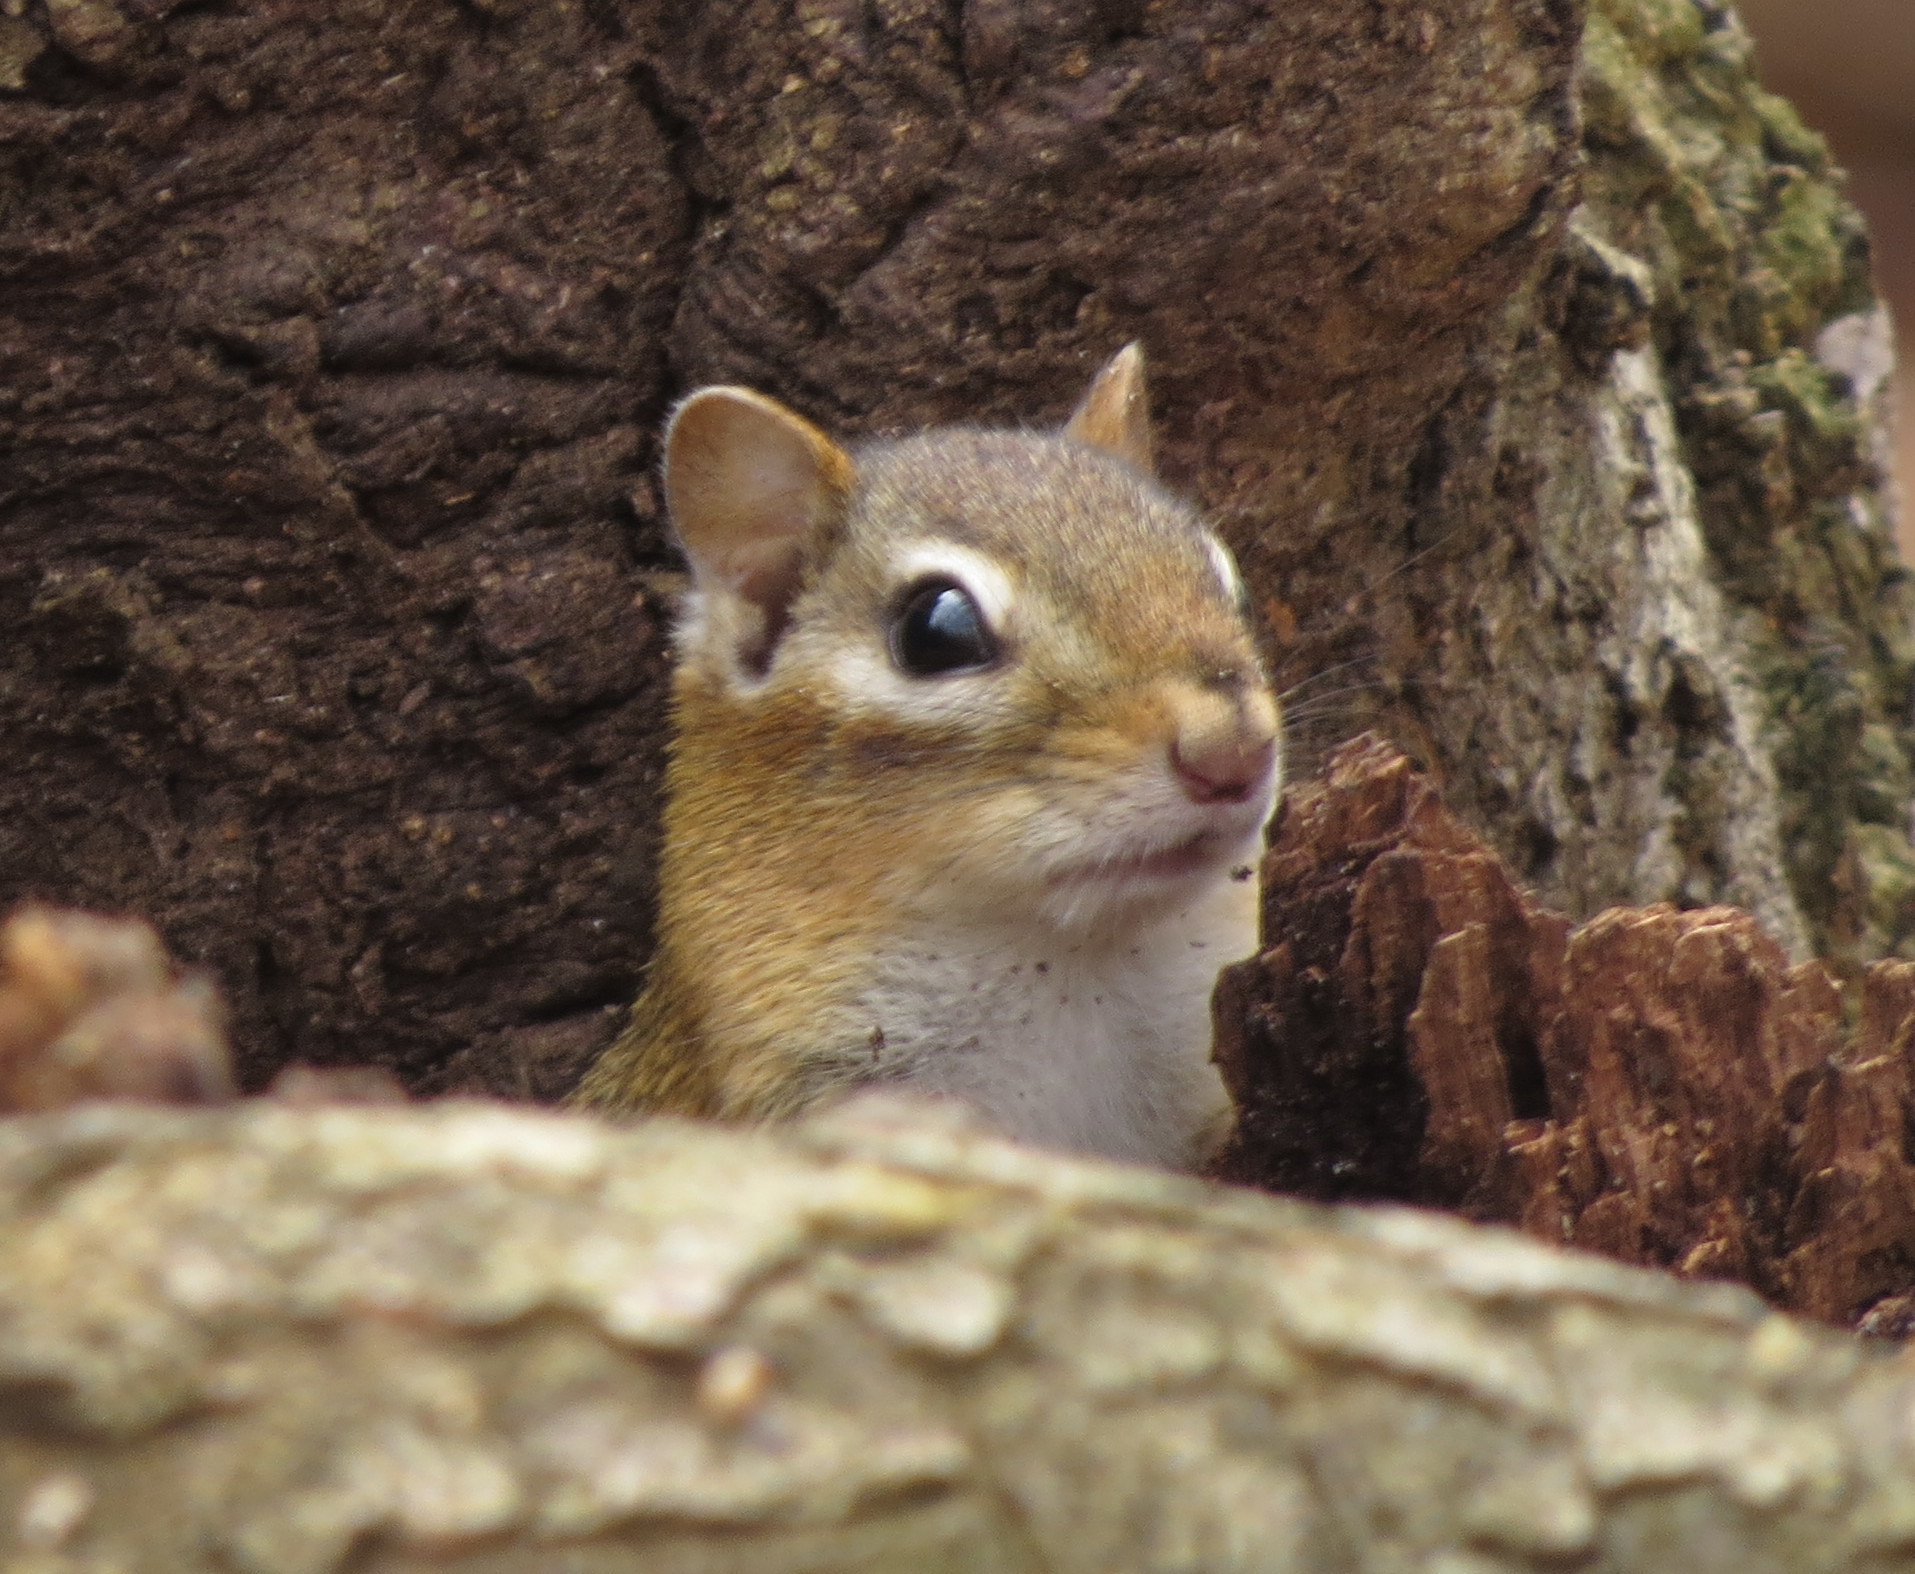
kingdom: Animalia
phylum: Chordata
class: Mammalia
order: Rodentia
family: Sciuridae
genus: Tamias
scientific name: Tamias striatus
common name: Eastern chipmunk
